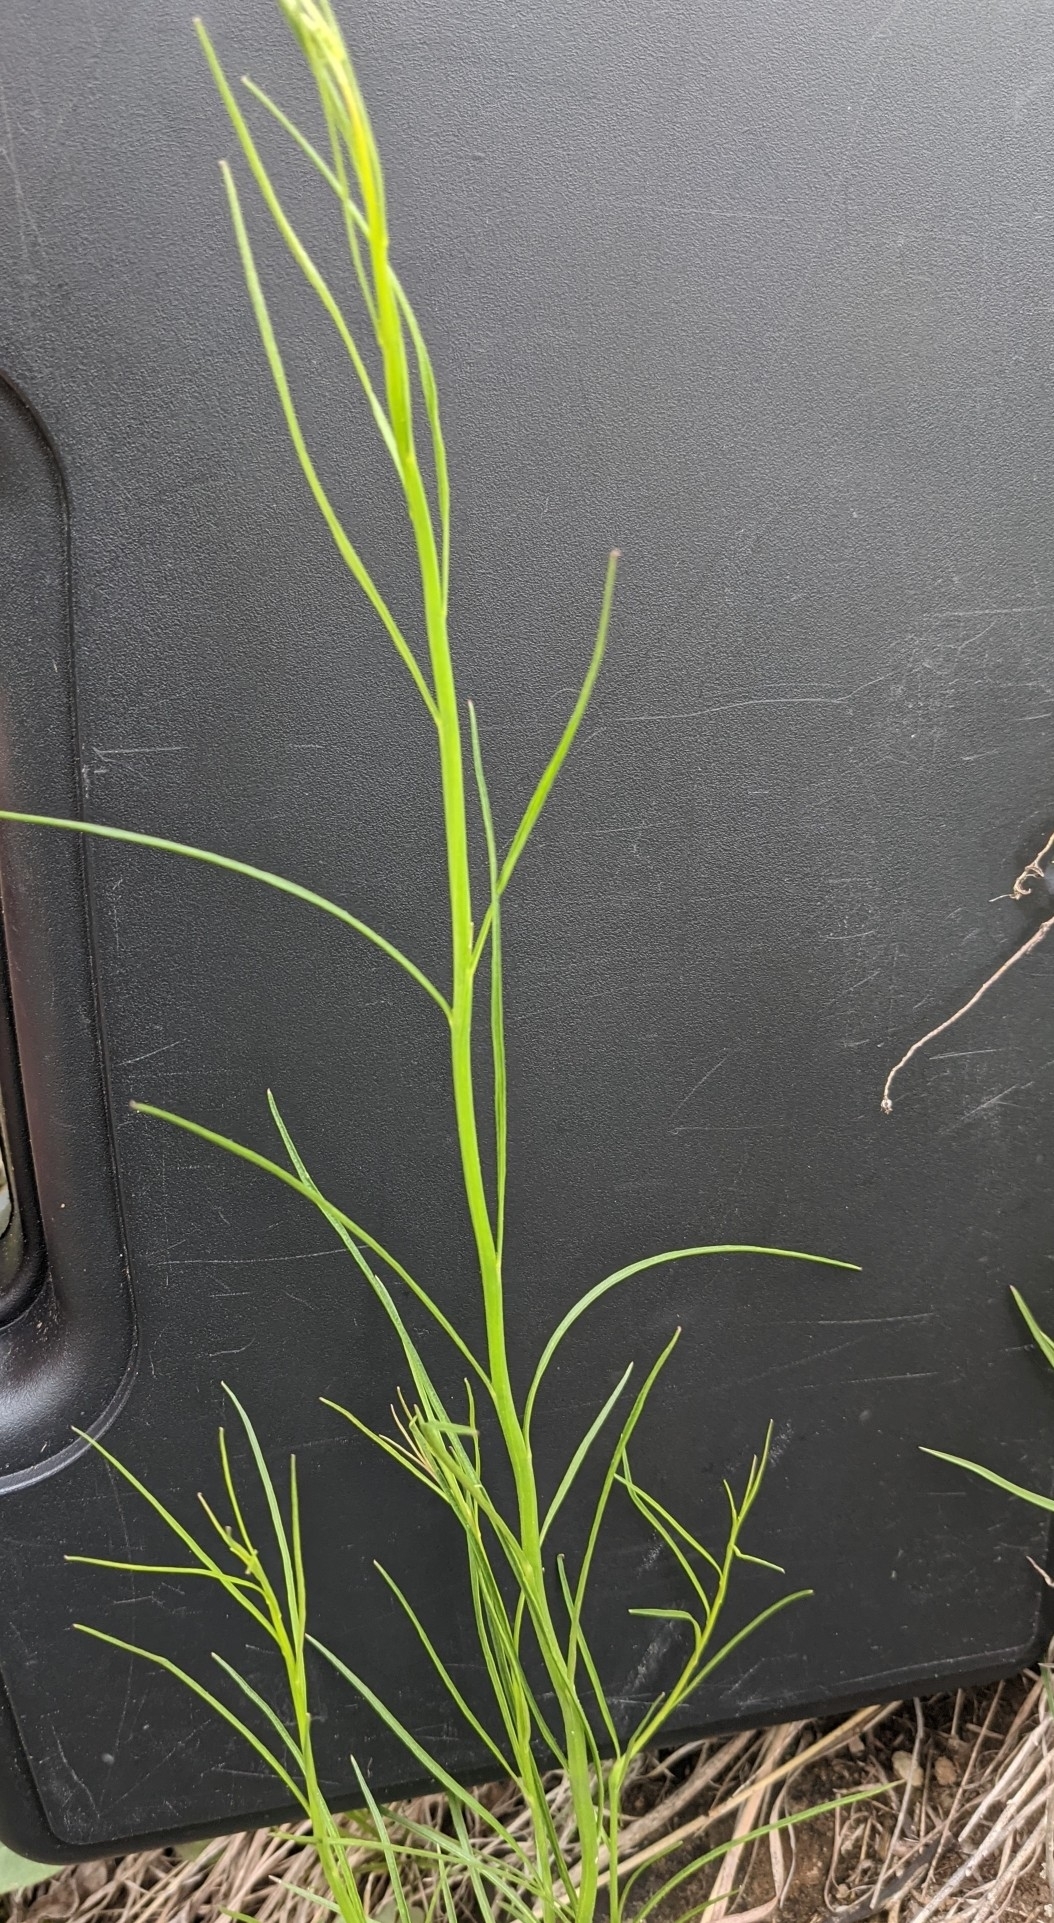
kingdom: Plantae
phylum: Tracheophyta
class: Magnoliopsida
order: Asterales
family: Campanulaceae
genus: Campanula
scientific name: Campanula intercedens
